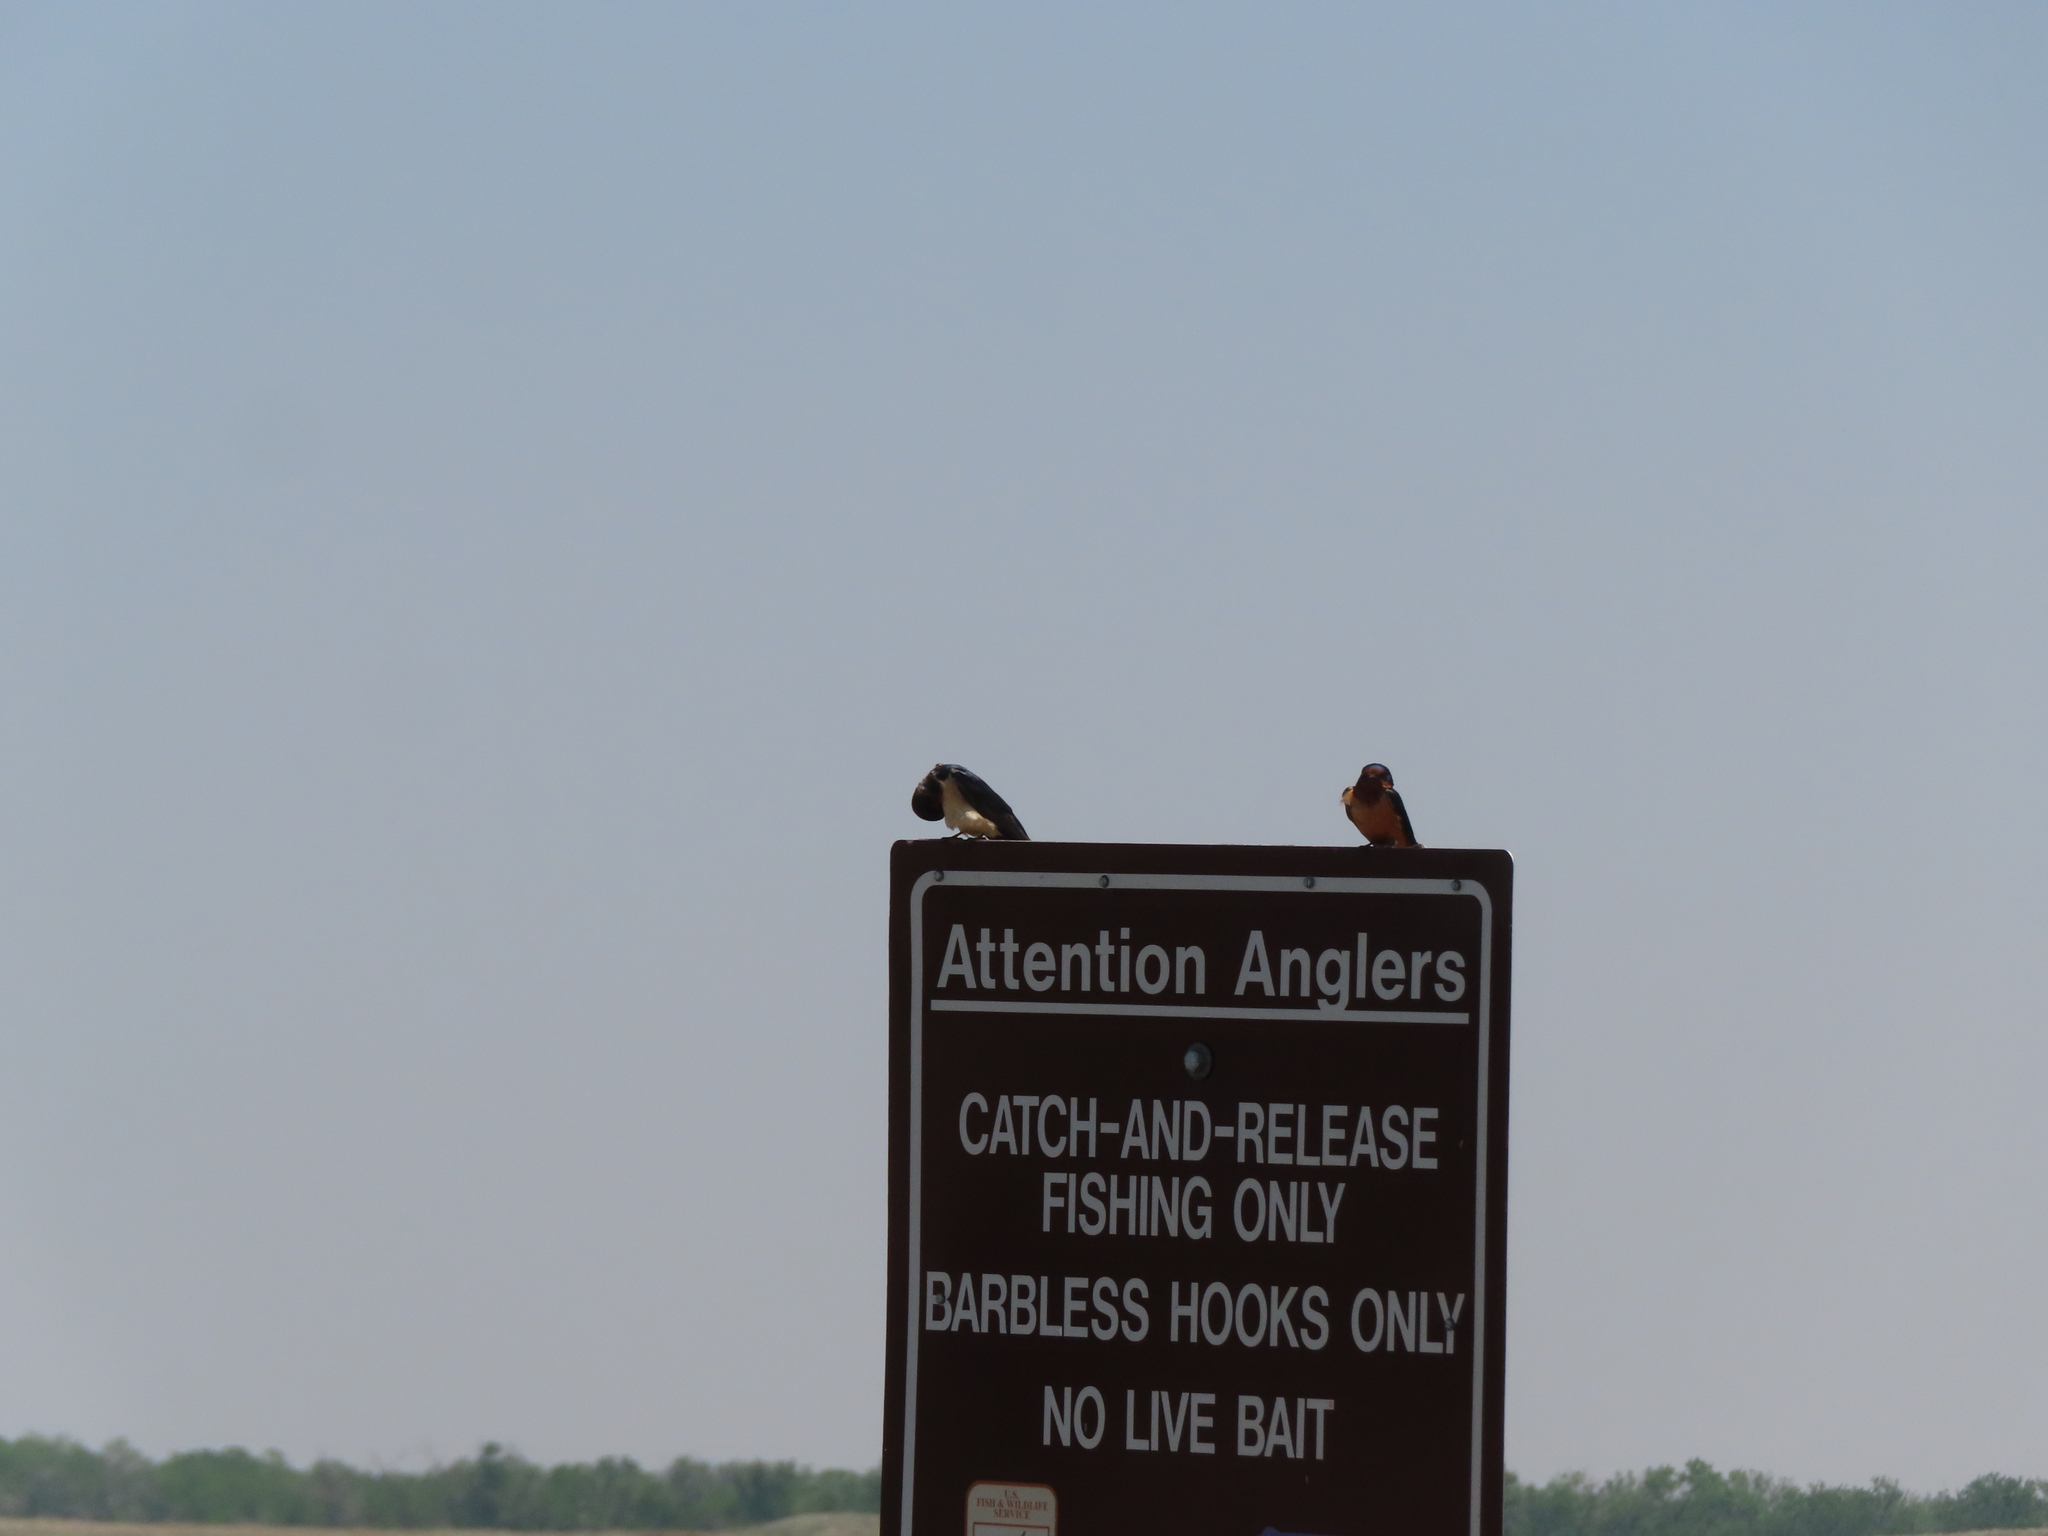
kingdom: Animalia
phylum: Chordata
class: Aves
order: Passeriformes
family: Hirundinidae
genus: Hirundo
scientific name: Hirundo rustica
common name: Barn swallow
